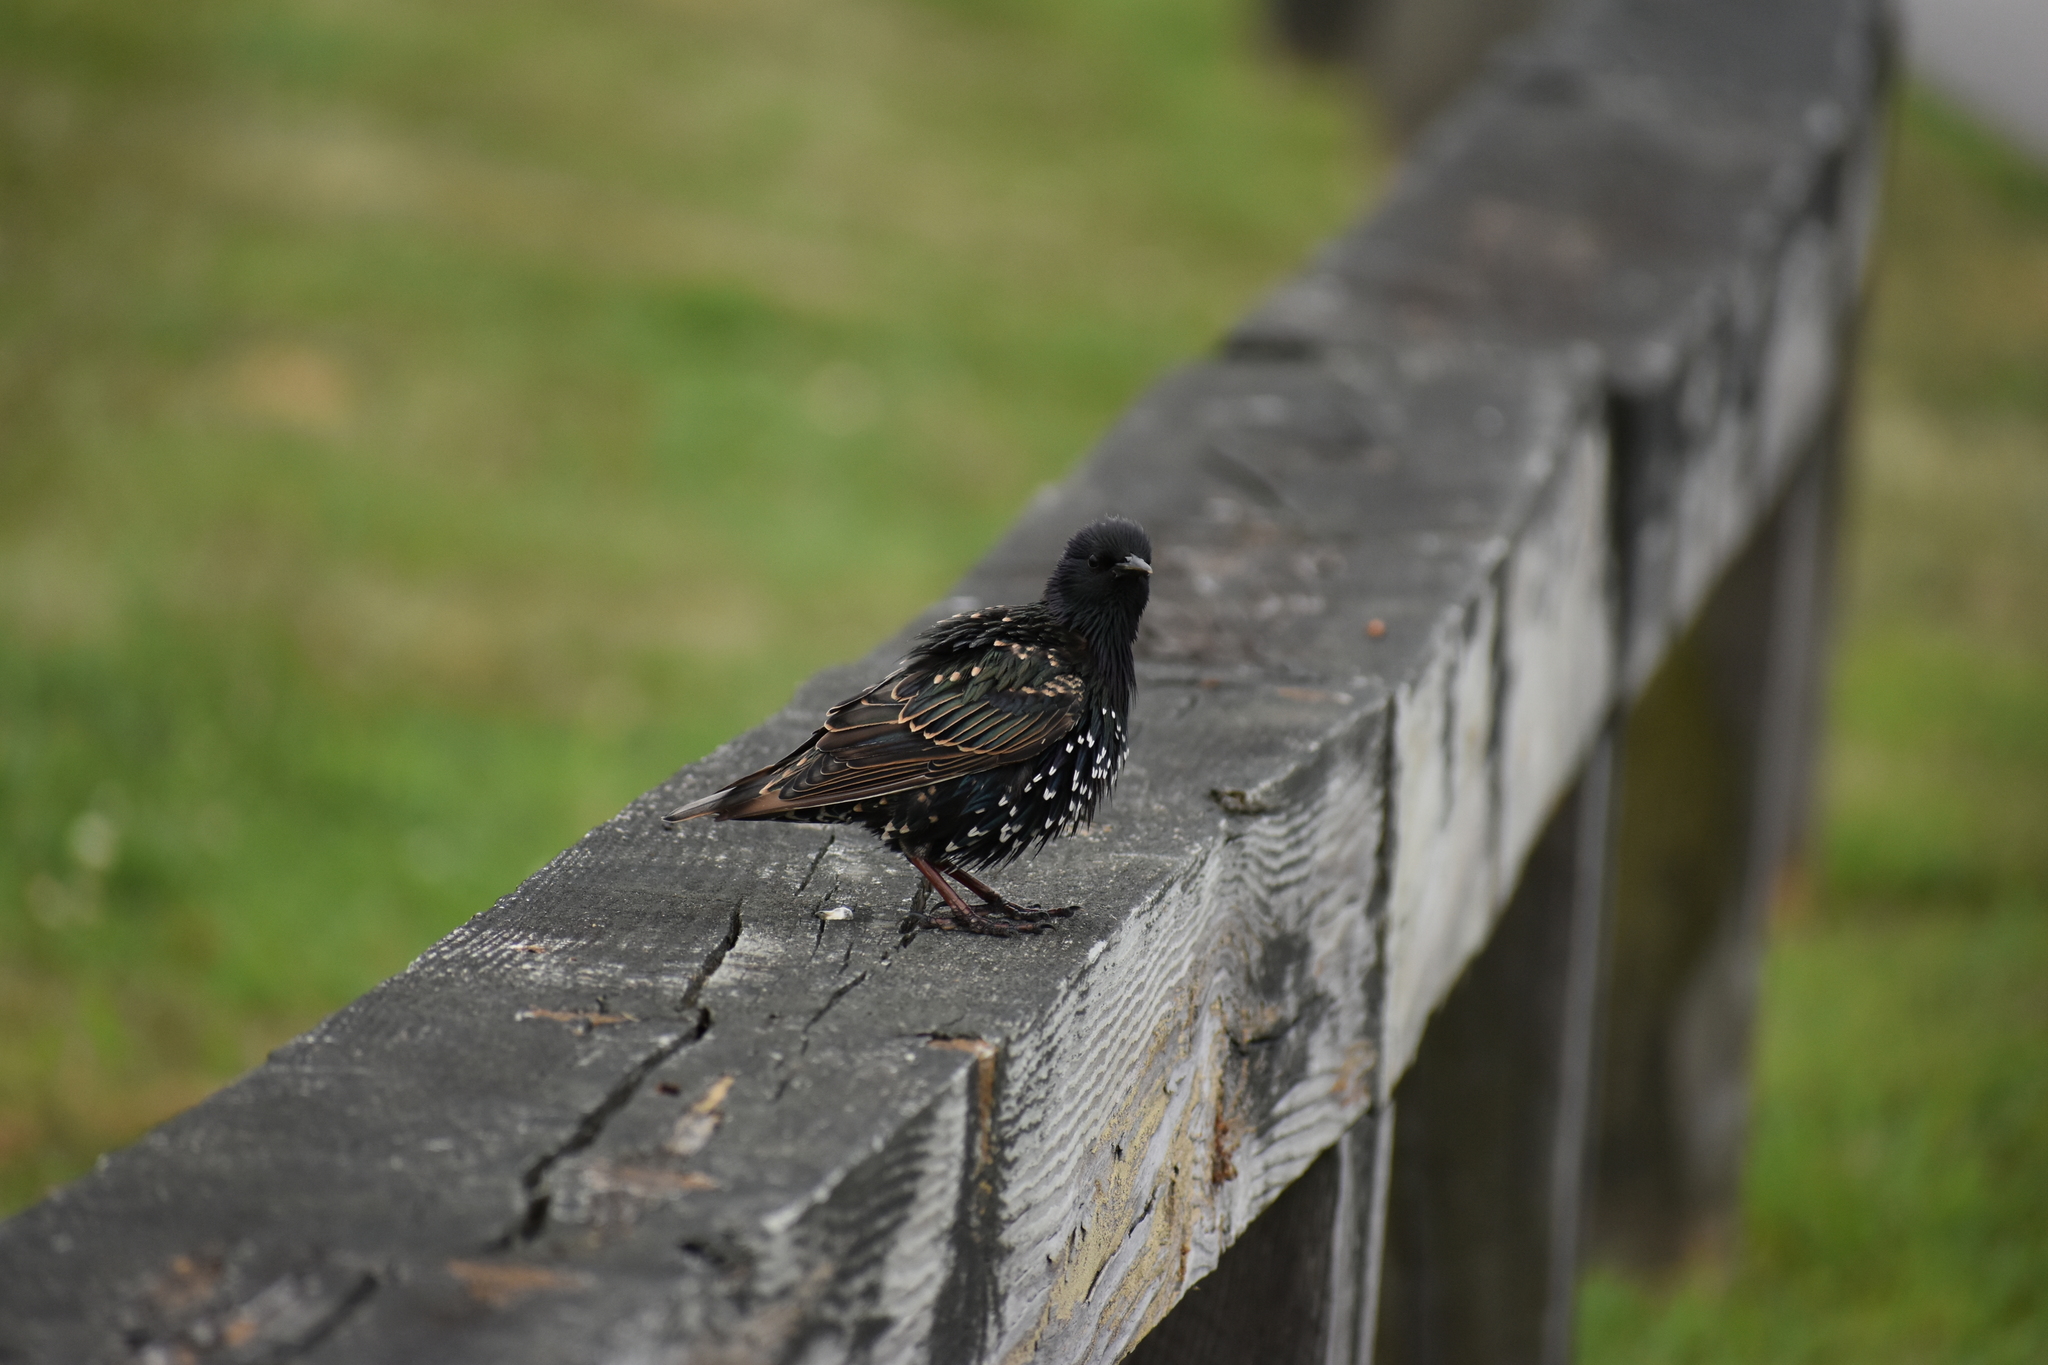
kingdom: Animalia
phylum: Chordata
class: Aves
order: Passeriformes
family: Sturnidae
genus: Sturnus
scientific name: Sturnus vulgaris
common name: Common starling
